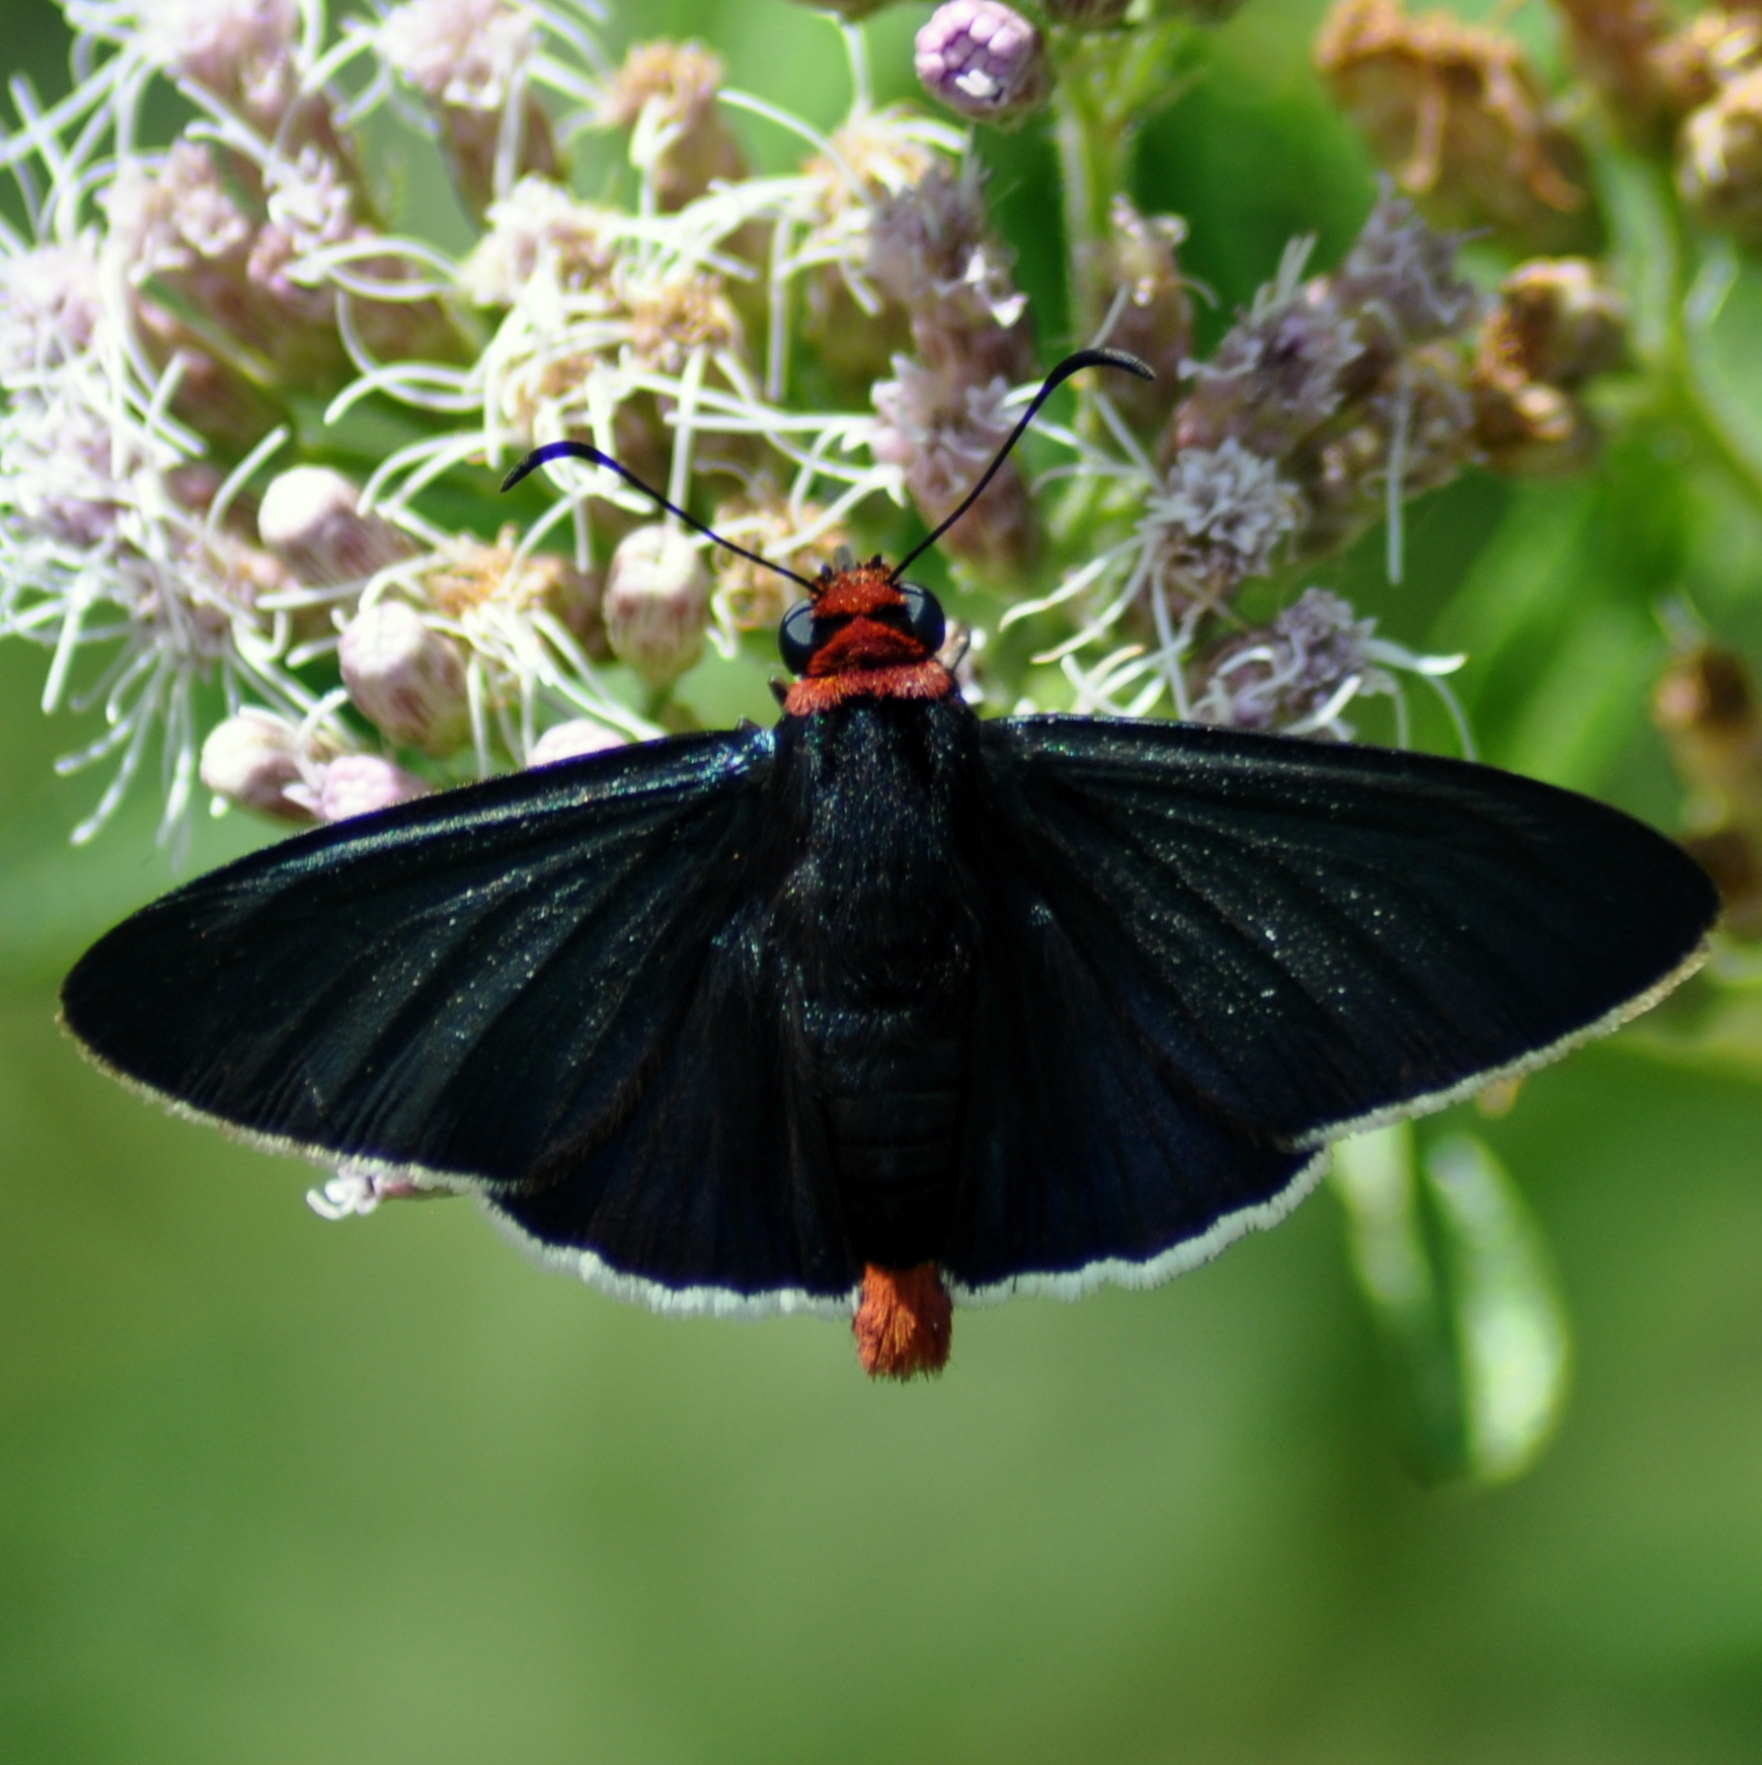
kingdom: Animalia
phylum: Arthropoda
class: Insecta
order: Lepidoptera
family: Hesperiidae
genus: Pyrrhopyge
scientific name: Pyrrhopyge charybdis
